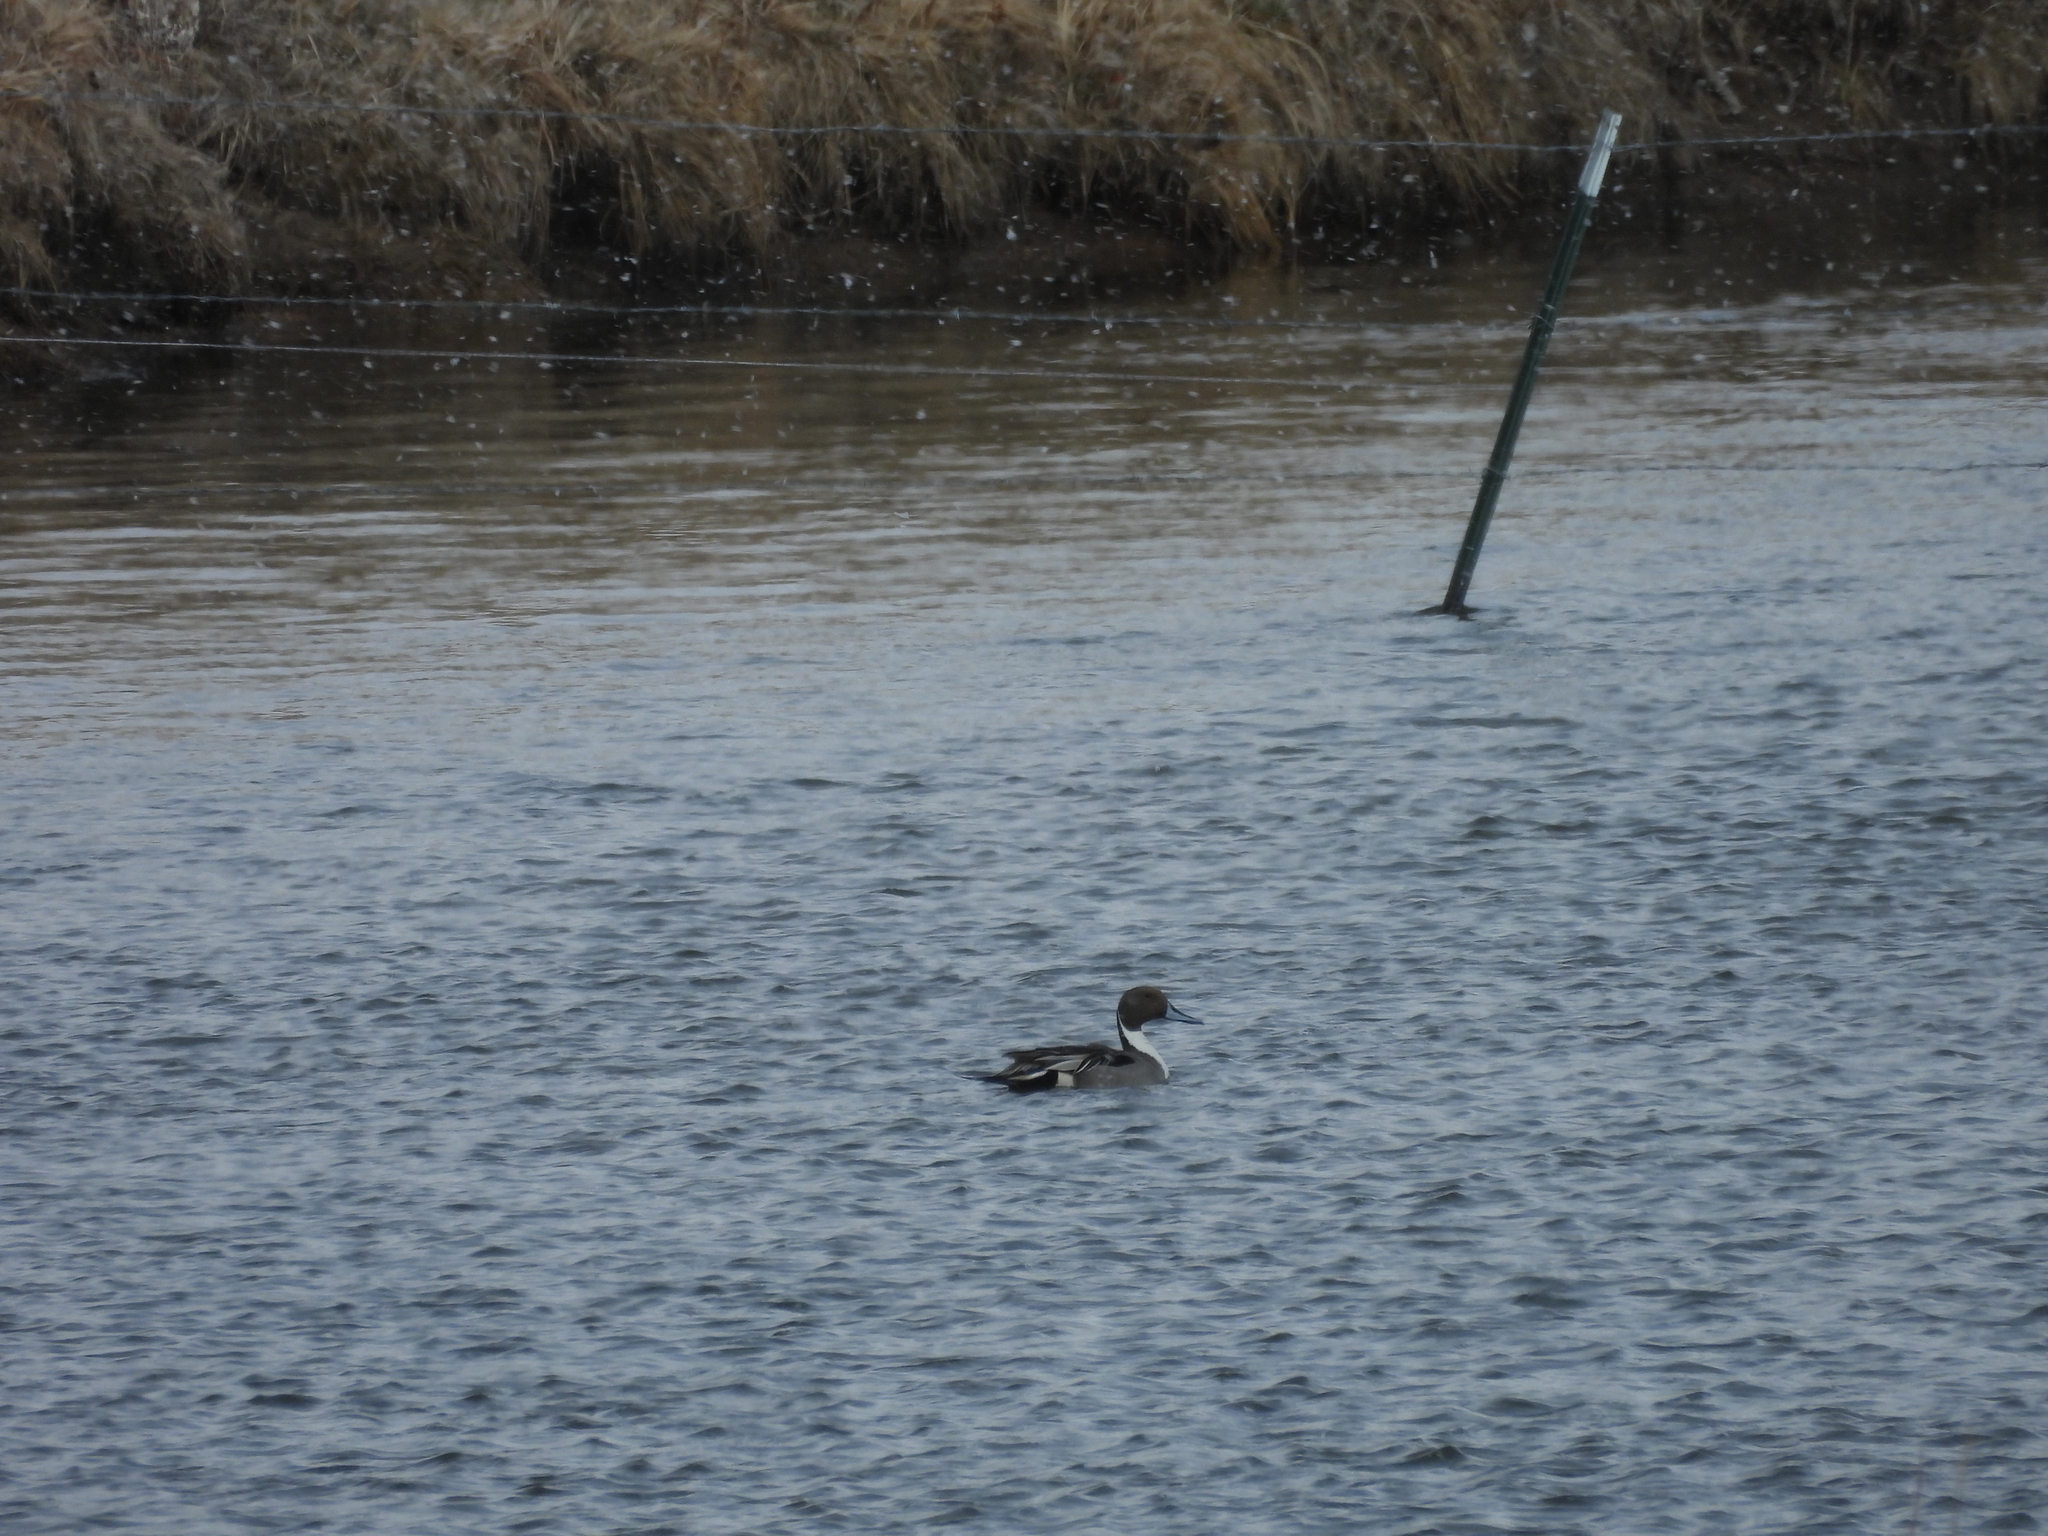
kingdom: Animalia
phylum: Chordata
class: Aves
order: Anseriformes
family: Anatidae
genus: Anas
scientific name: Anas acuta
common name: Northern pintail
